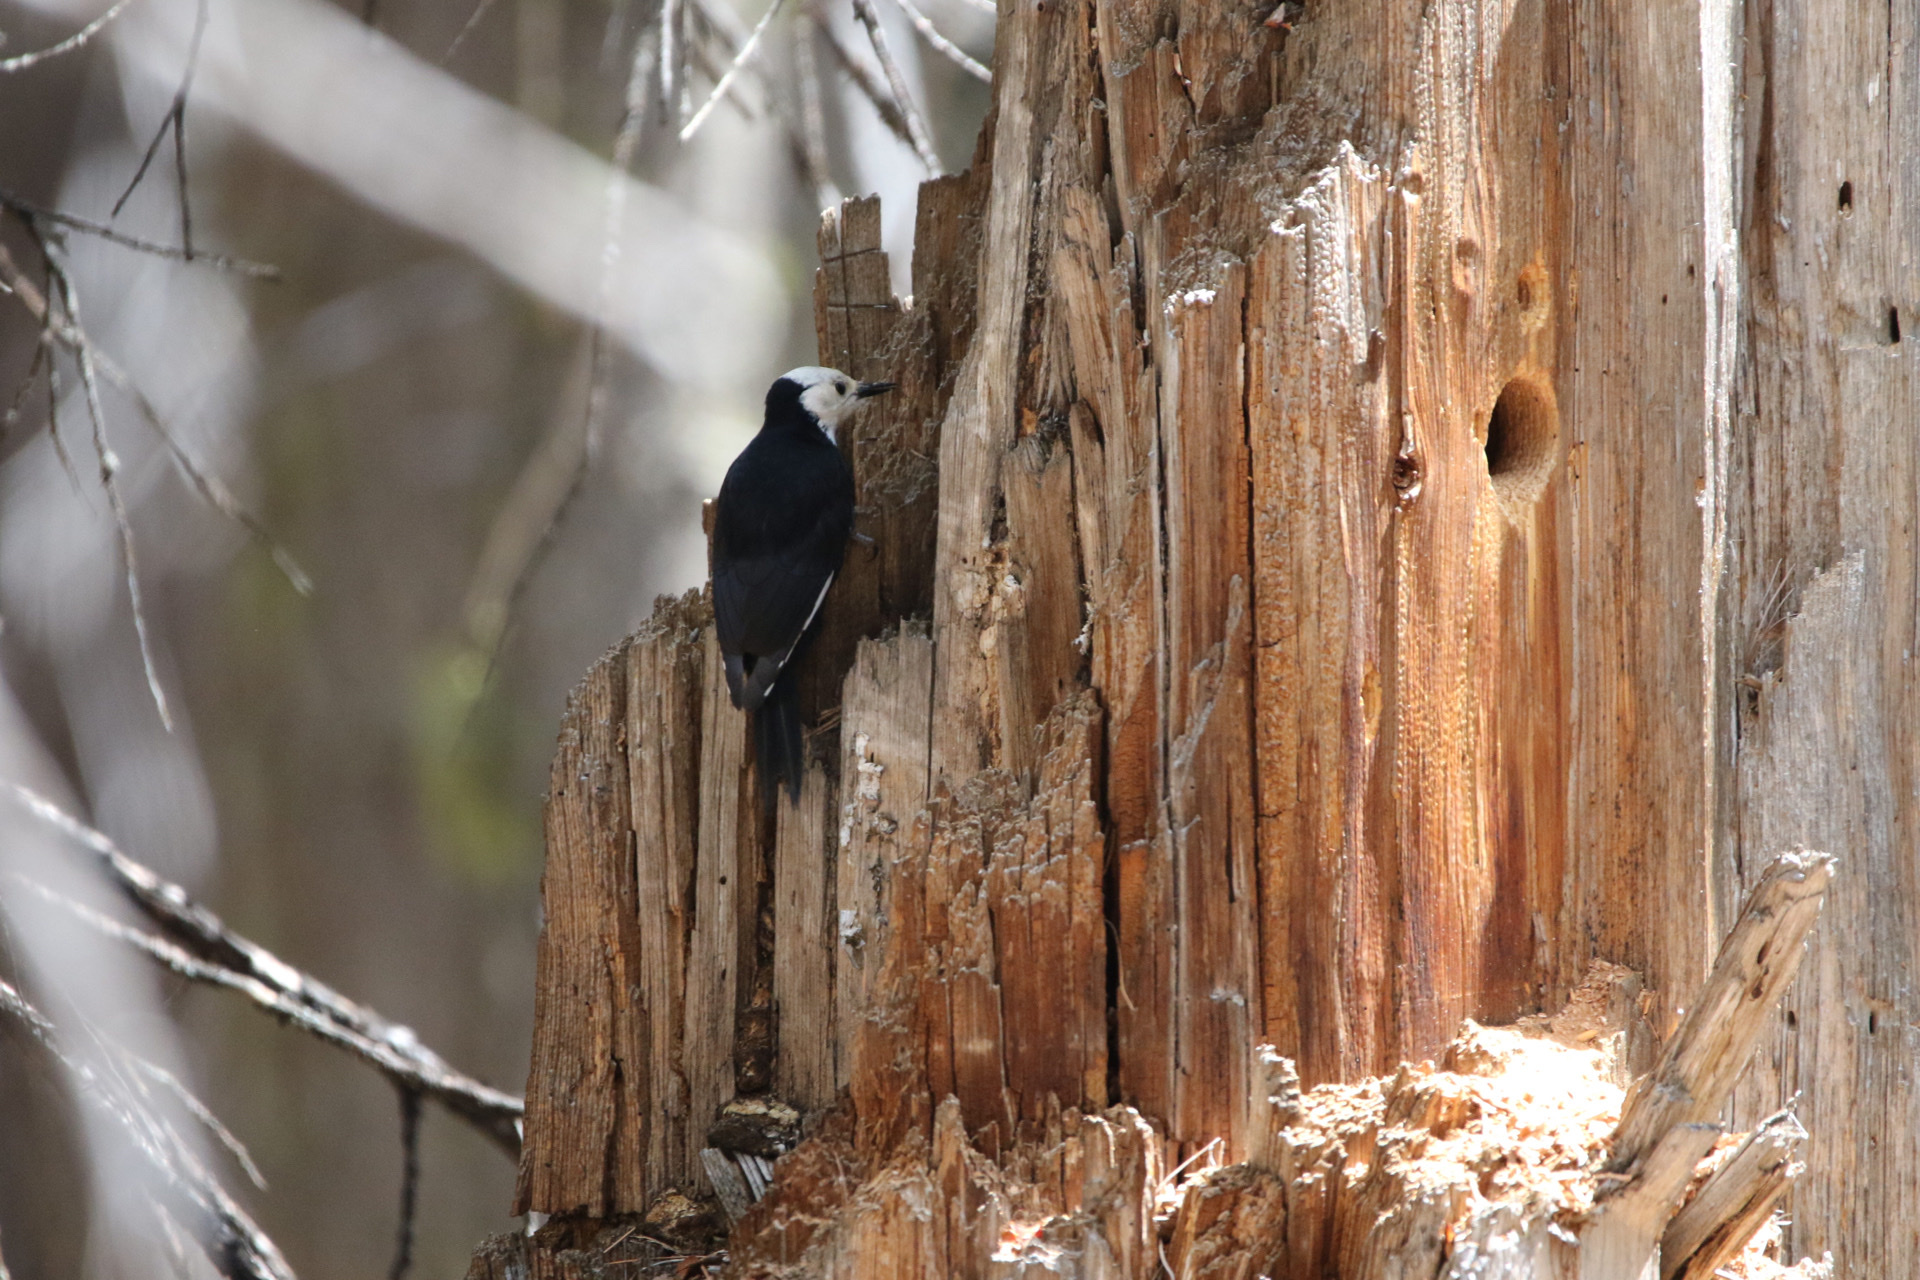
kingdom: Animalia
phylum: Chordata
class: Aves
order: Piciformes
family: Picidae
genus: Leuconotopicus
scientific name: Leuconotopicus albolarvatus
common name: White-headed woodpecker
